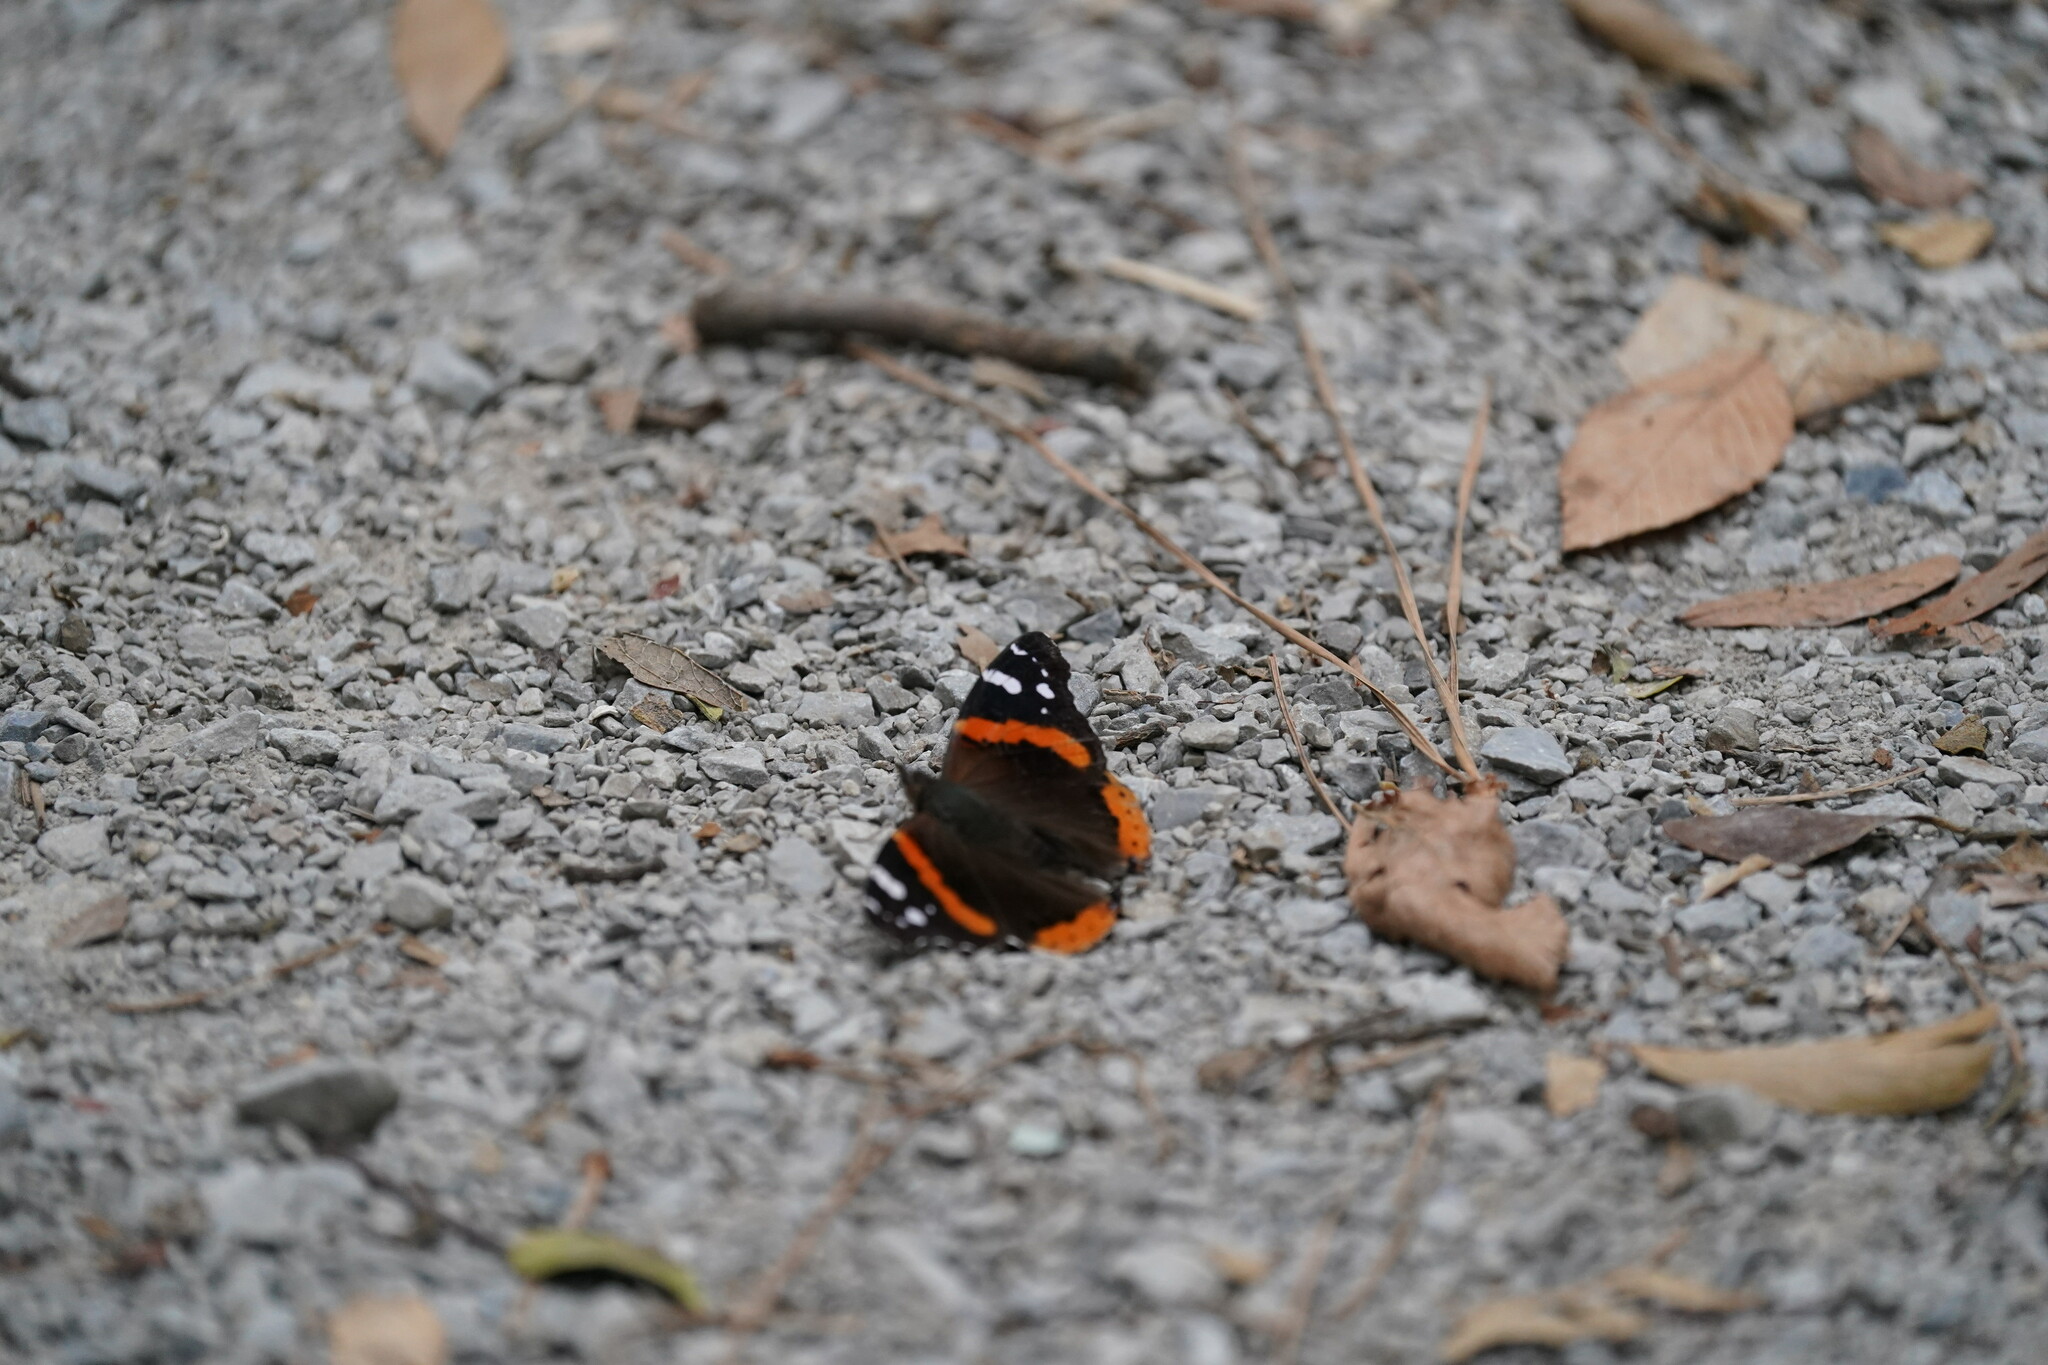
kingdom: Animalia
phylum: Arthropoda
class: Insecta
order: Lepidoptera
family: Nymphalidae
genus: Vanessa
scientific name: Vanessa atalanta
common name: Red admiral
